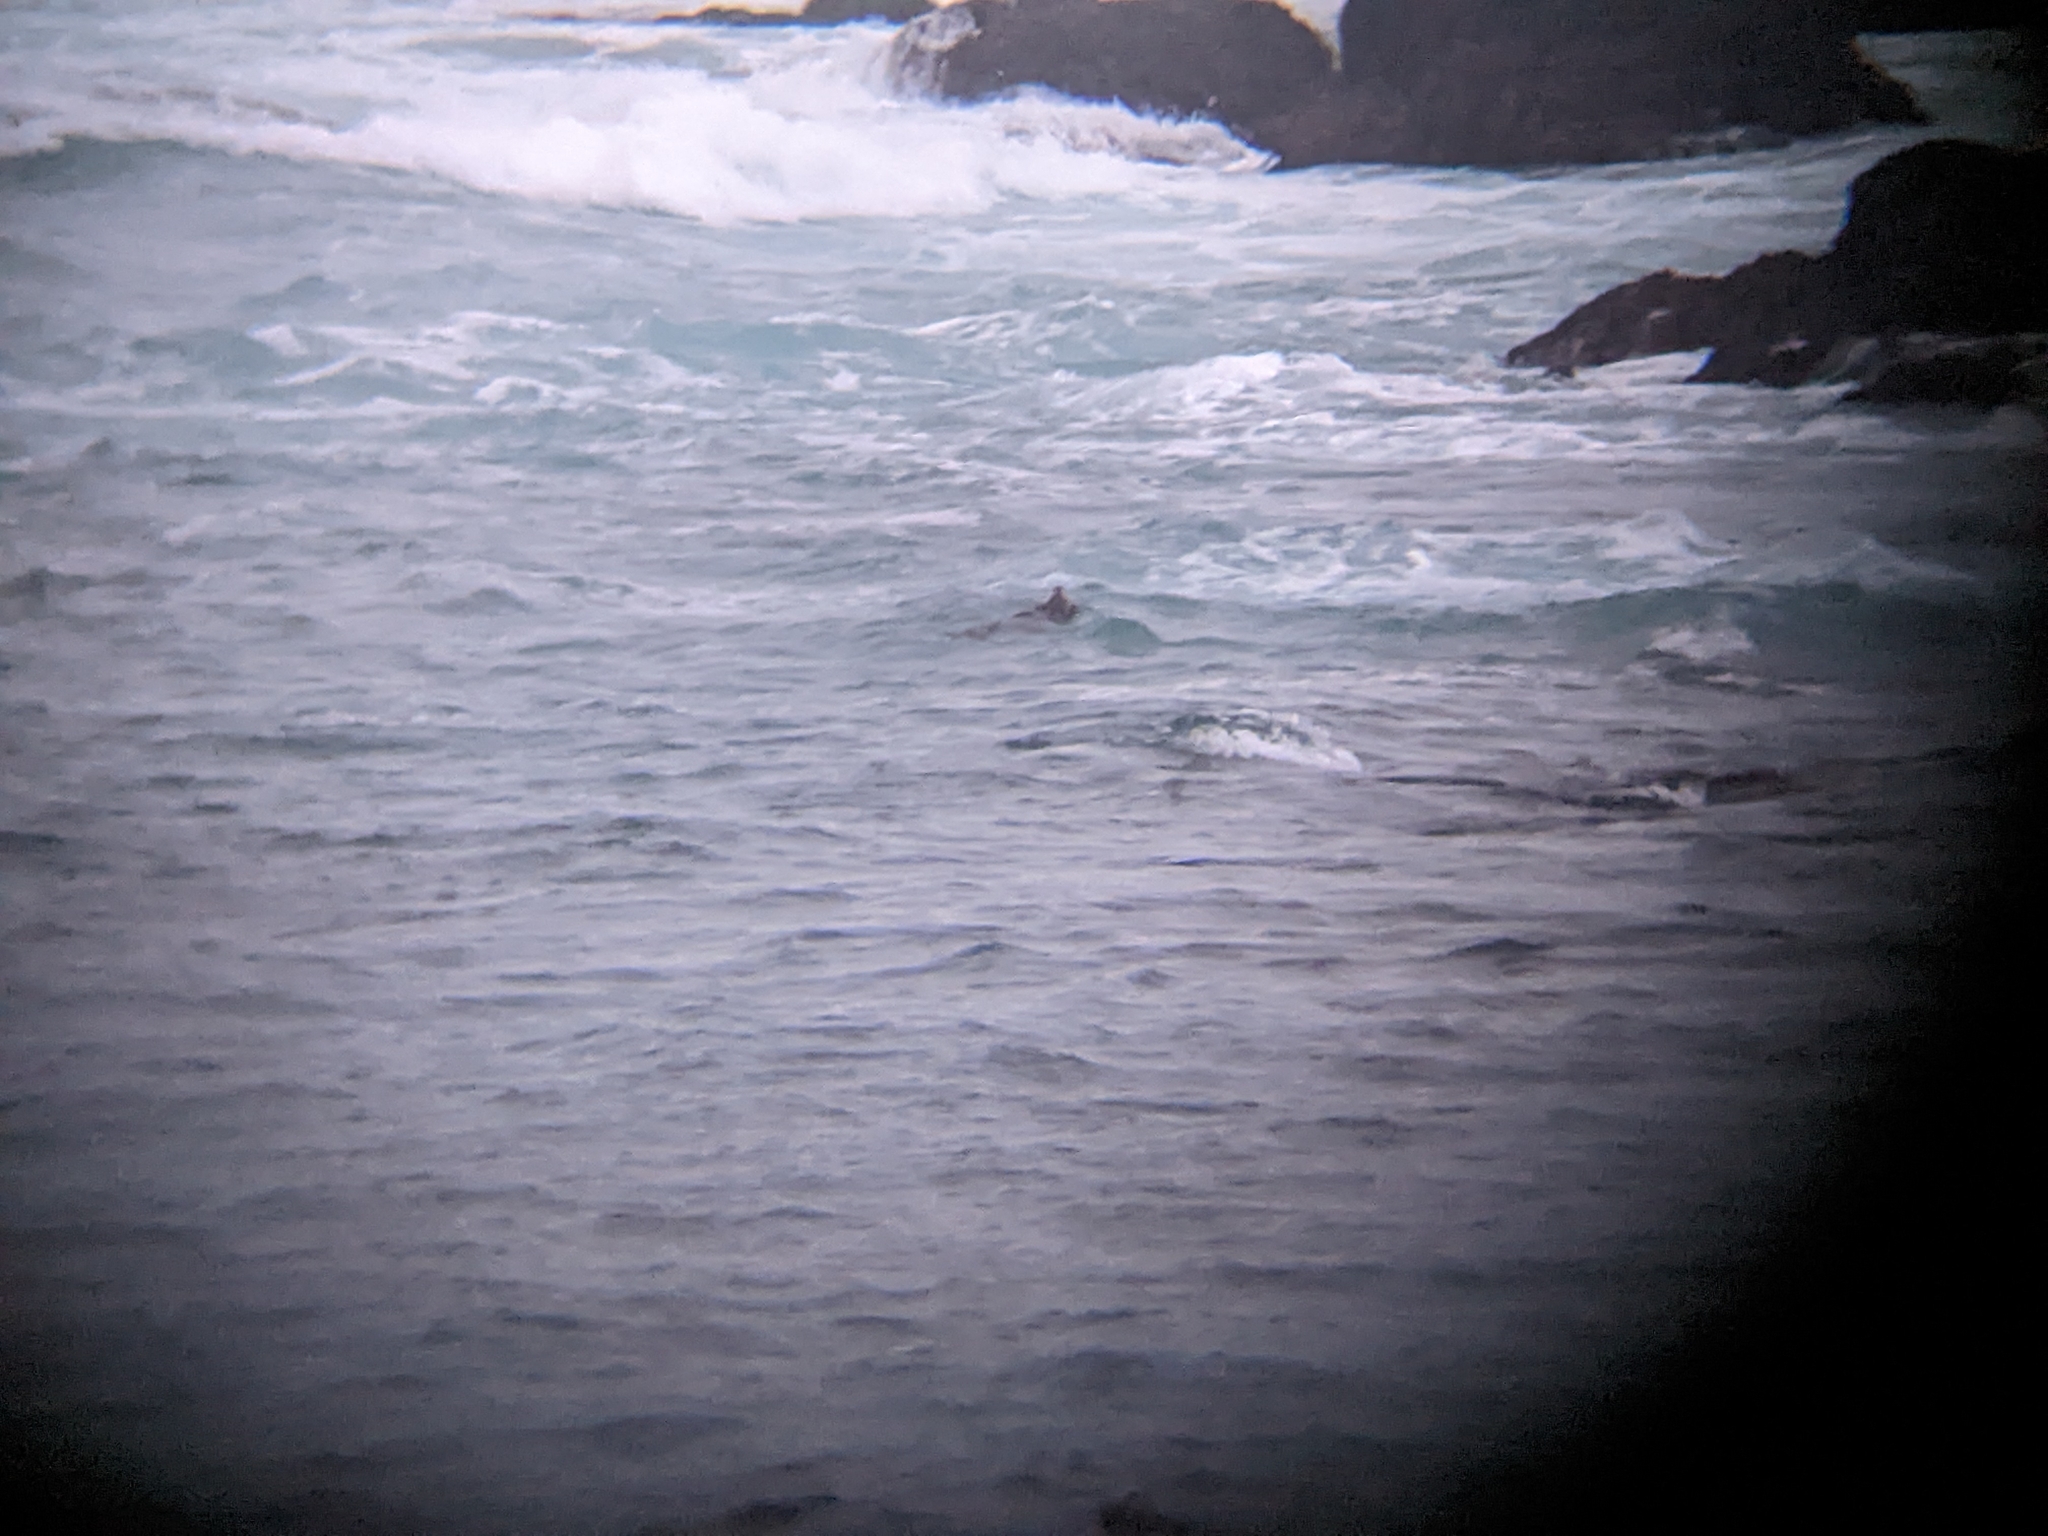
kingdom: Animalia
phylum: Chordata
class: Mammalia
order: Carnivora
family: Mustelidae
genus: Enhydra
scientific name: Enhydra lutris
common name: Sea otter
